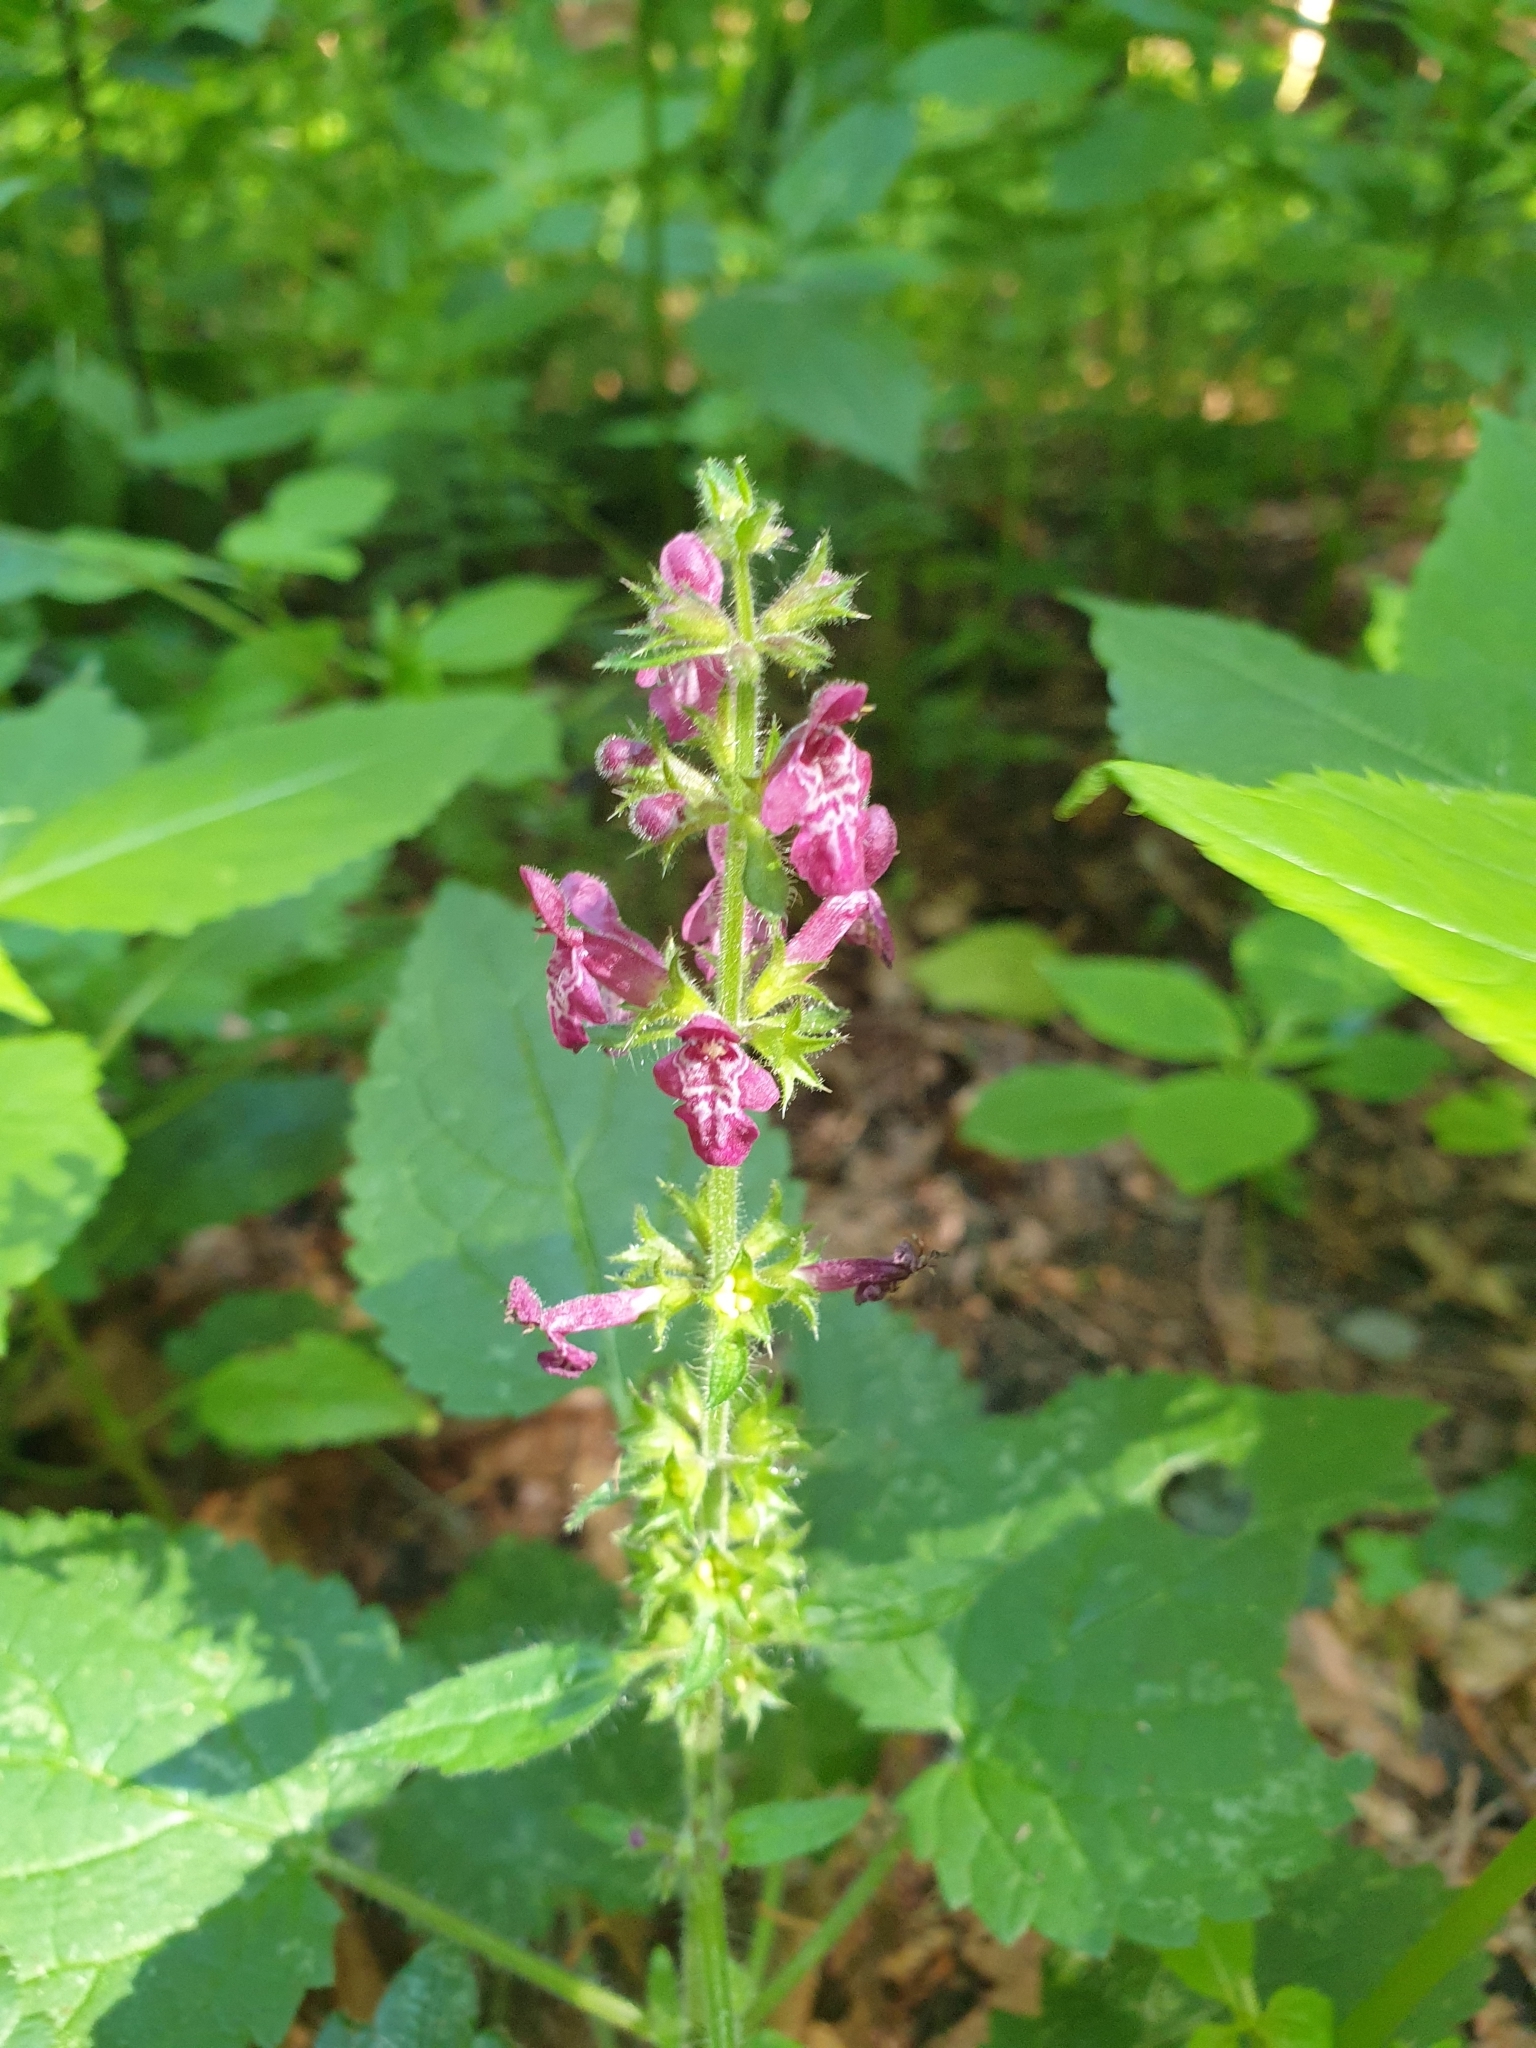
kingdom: Plantae
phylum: Tracheophyta
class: Magnoliopsida
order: Lamiales
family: Lamiaceae
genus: Stachys
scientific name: Stachys sylvatica
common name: Hedge woundwort
